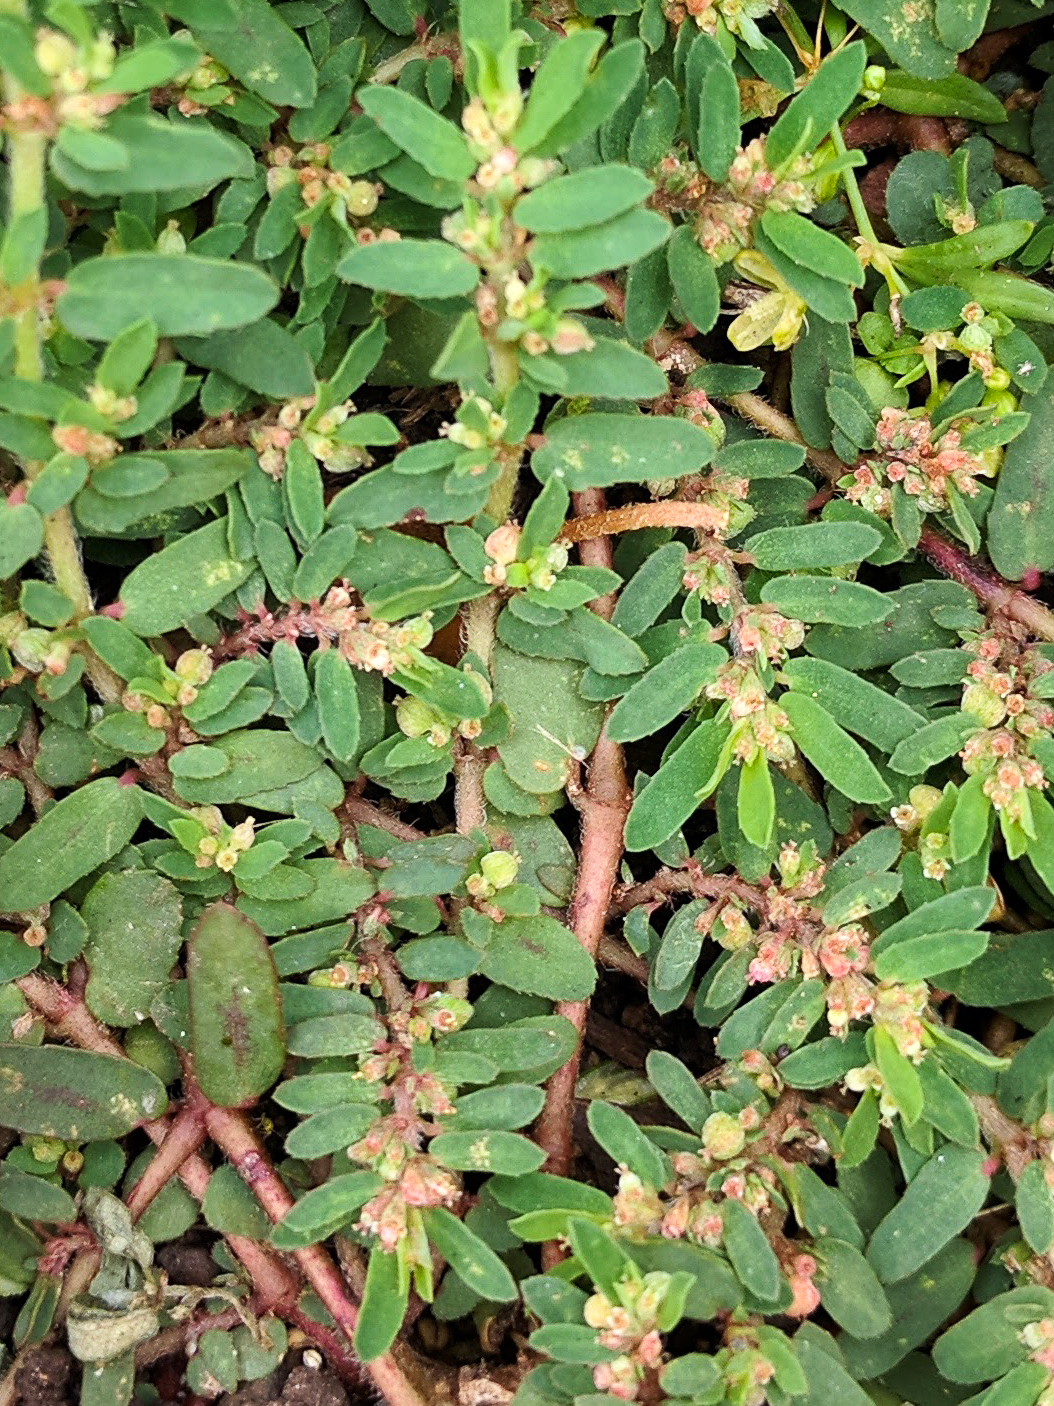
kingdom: Plantae
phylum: Tracheophyta
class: Magnoliopsida
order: Malpighiales
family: Euphorbiaceae
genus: Euphorbia
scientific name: Euphorbia maculata
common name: Spotted spurge
